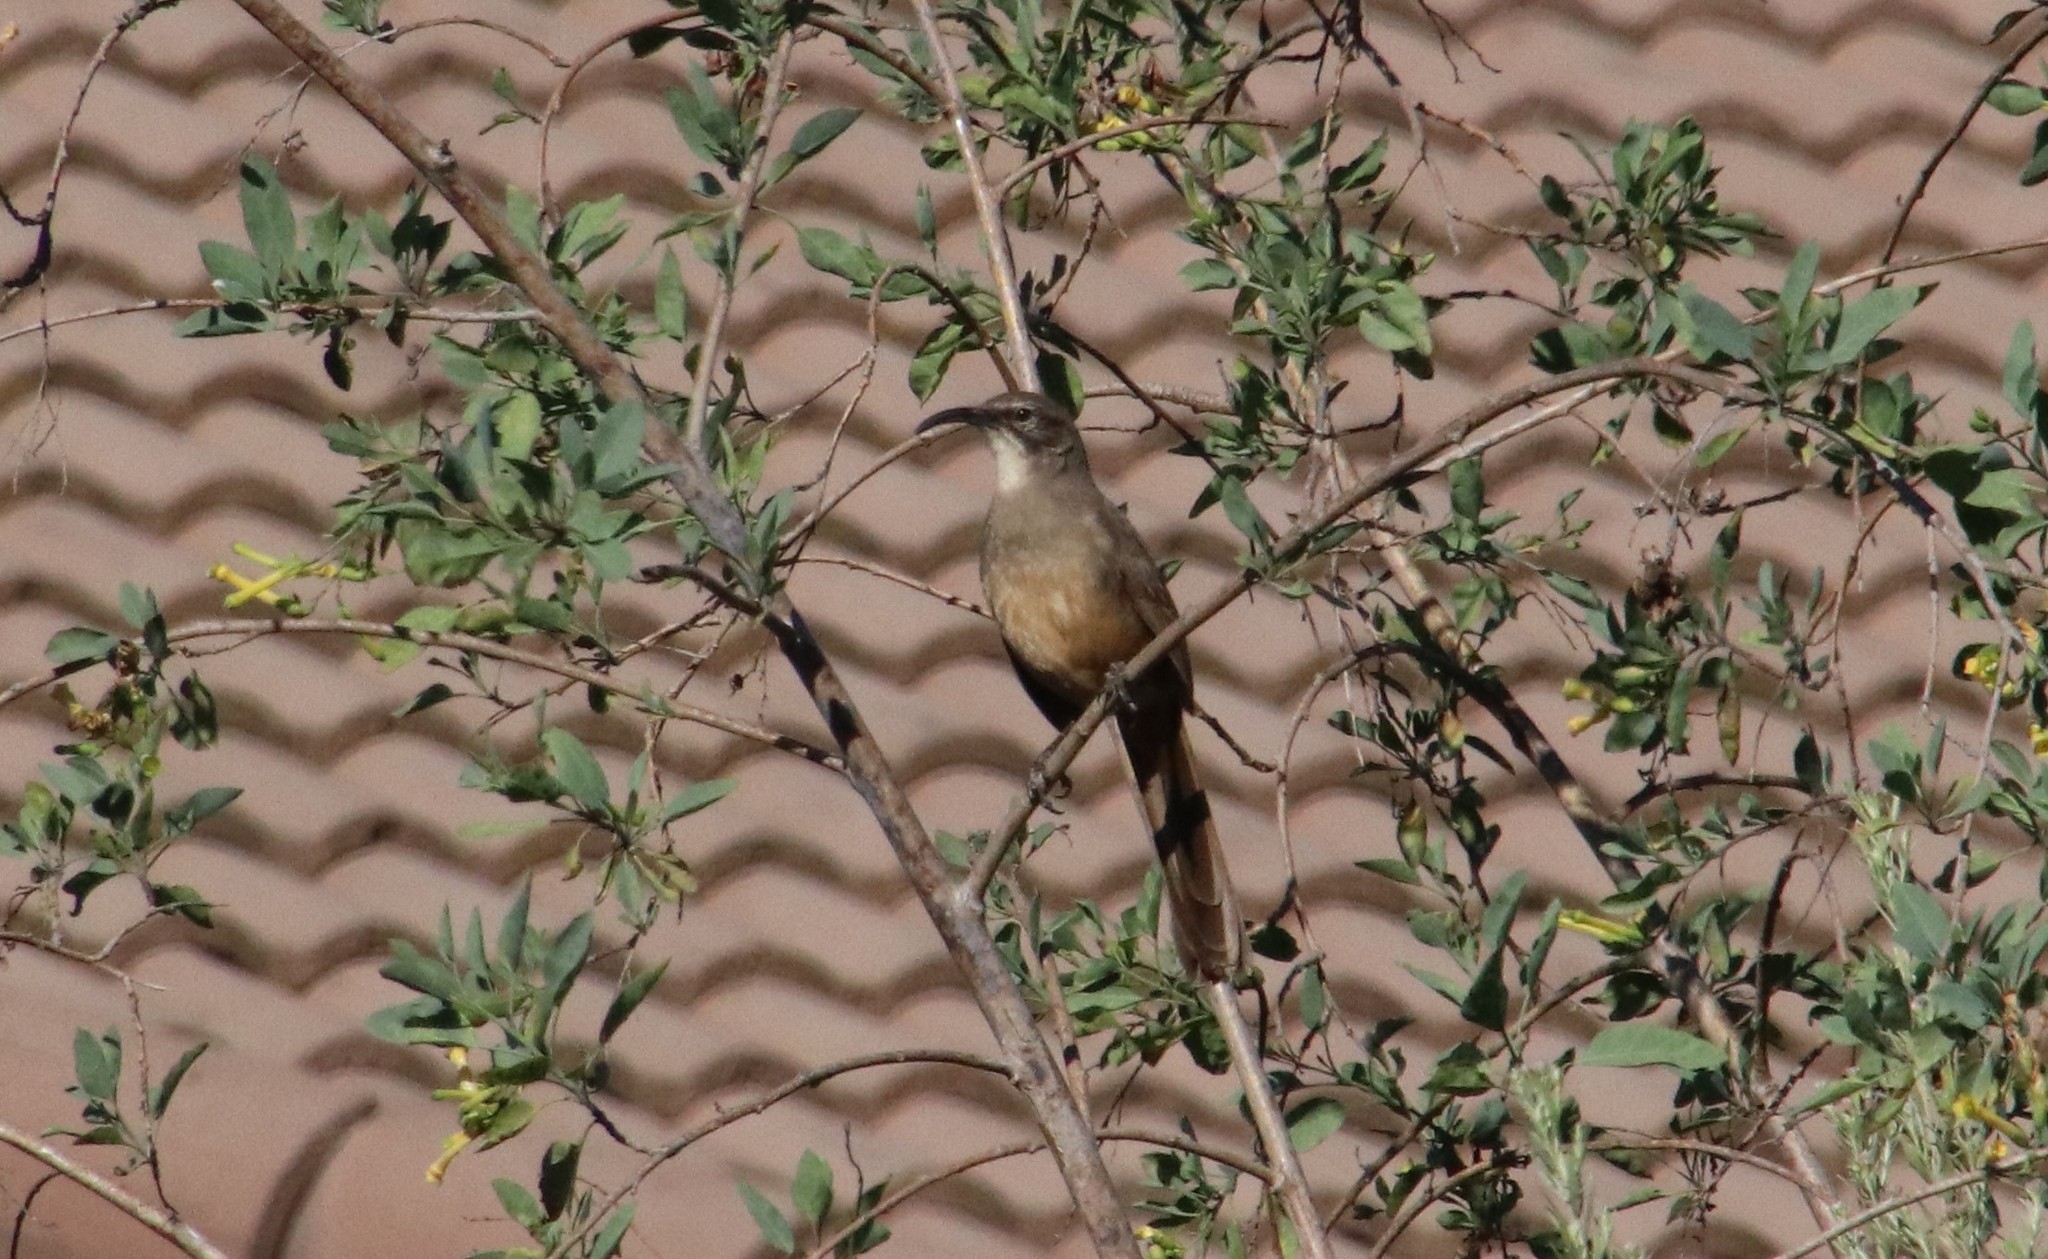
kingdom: Animalia
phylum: Chordata
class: Aves
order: Passeriformes
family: Mimidae
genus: Toxostoma
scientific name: Toxostoma redivivum
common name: California thrasher
